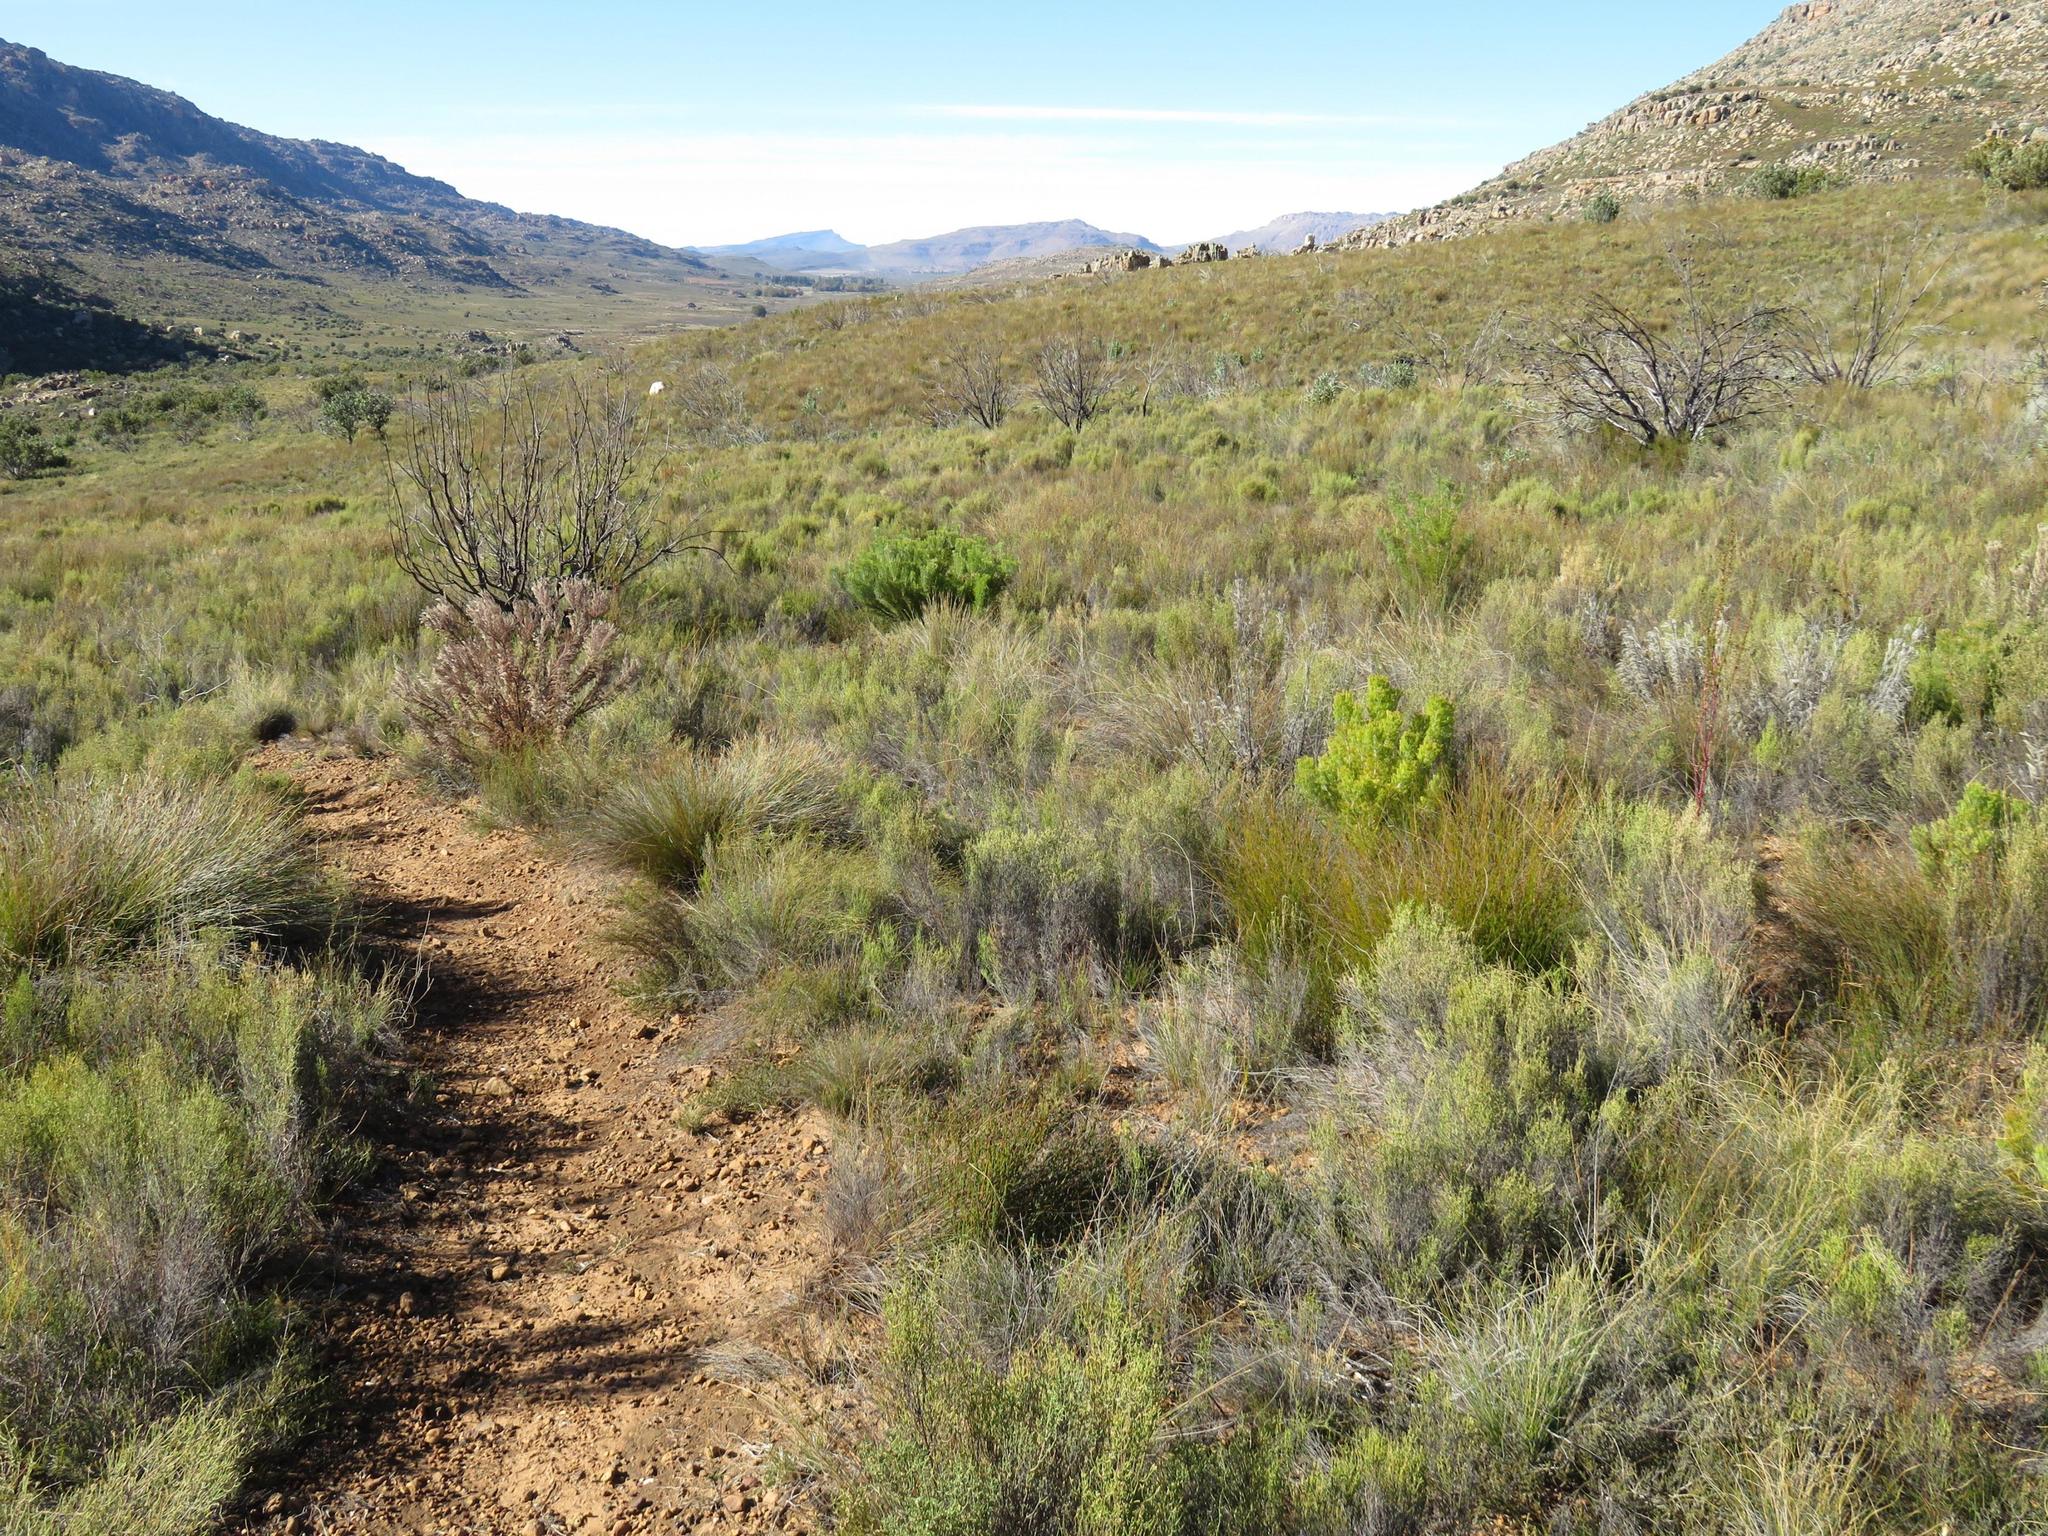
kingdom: Plantae
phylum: Tracheophyta
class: Magnoliopsida
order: Proteales
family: Proteaceae
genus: Paranomus
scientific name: Paranomus bracteolaris
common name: Bokkeveld tree sceptre
